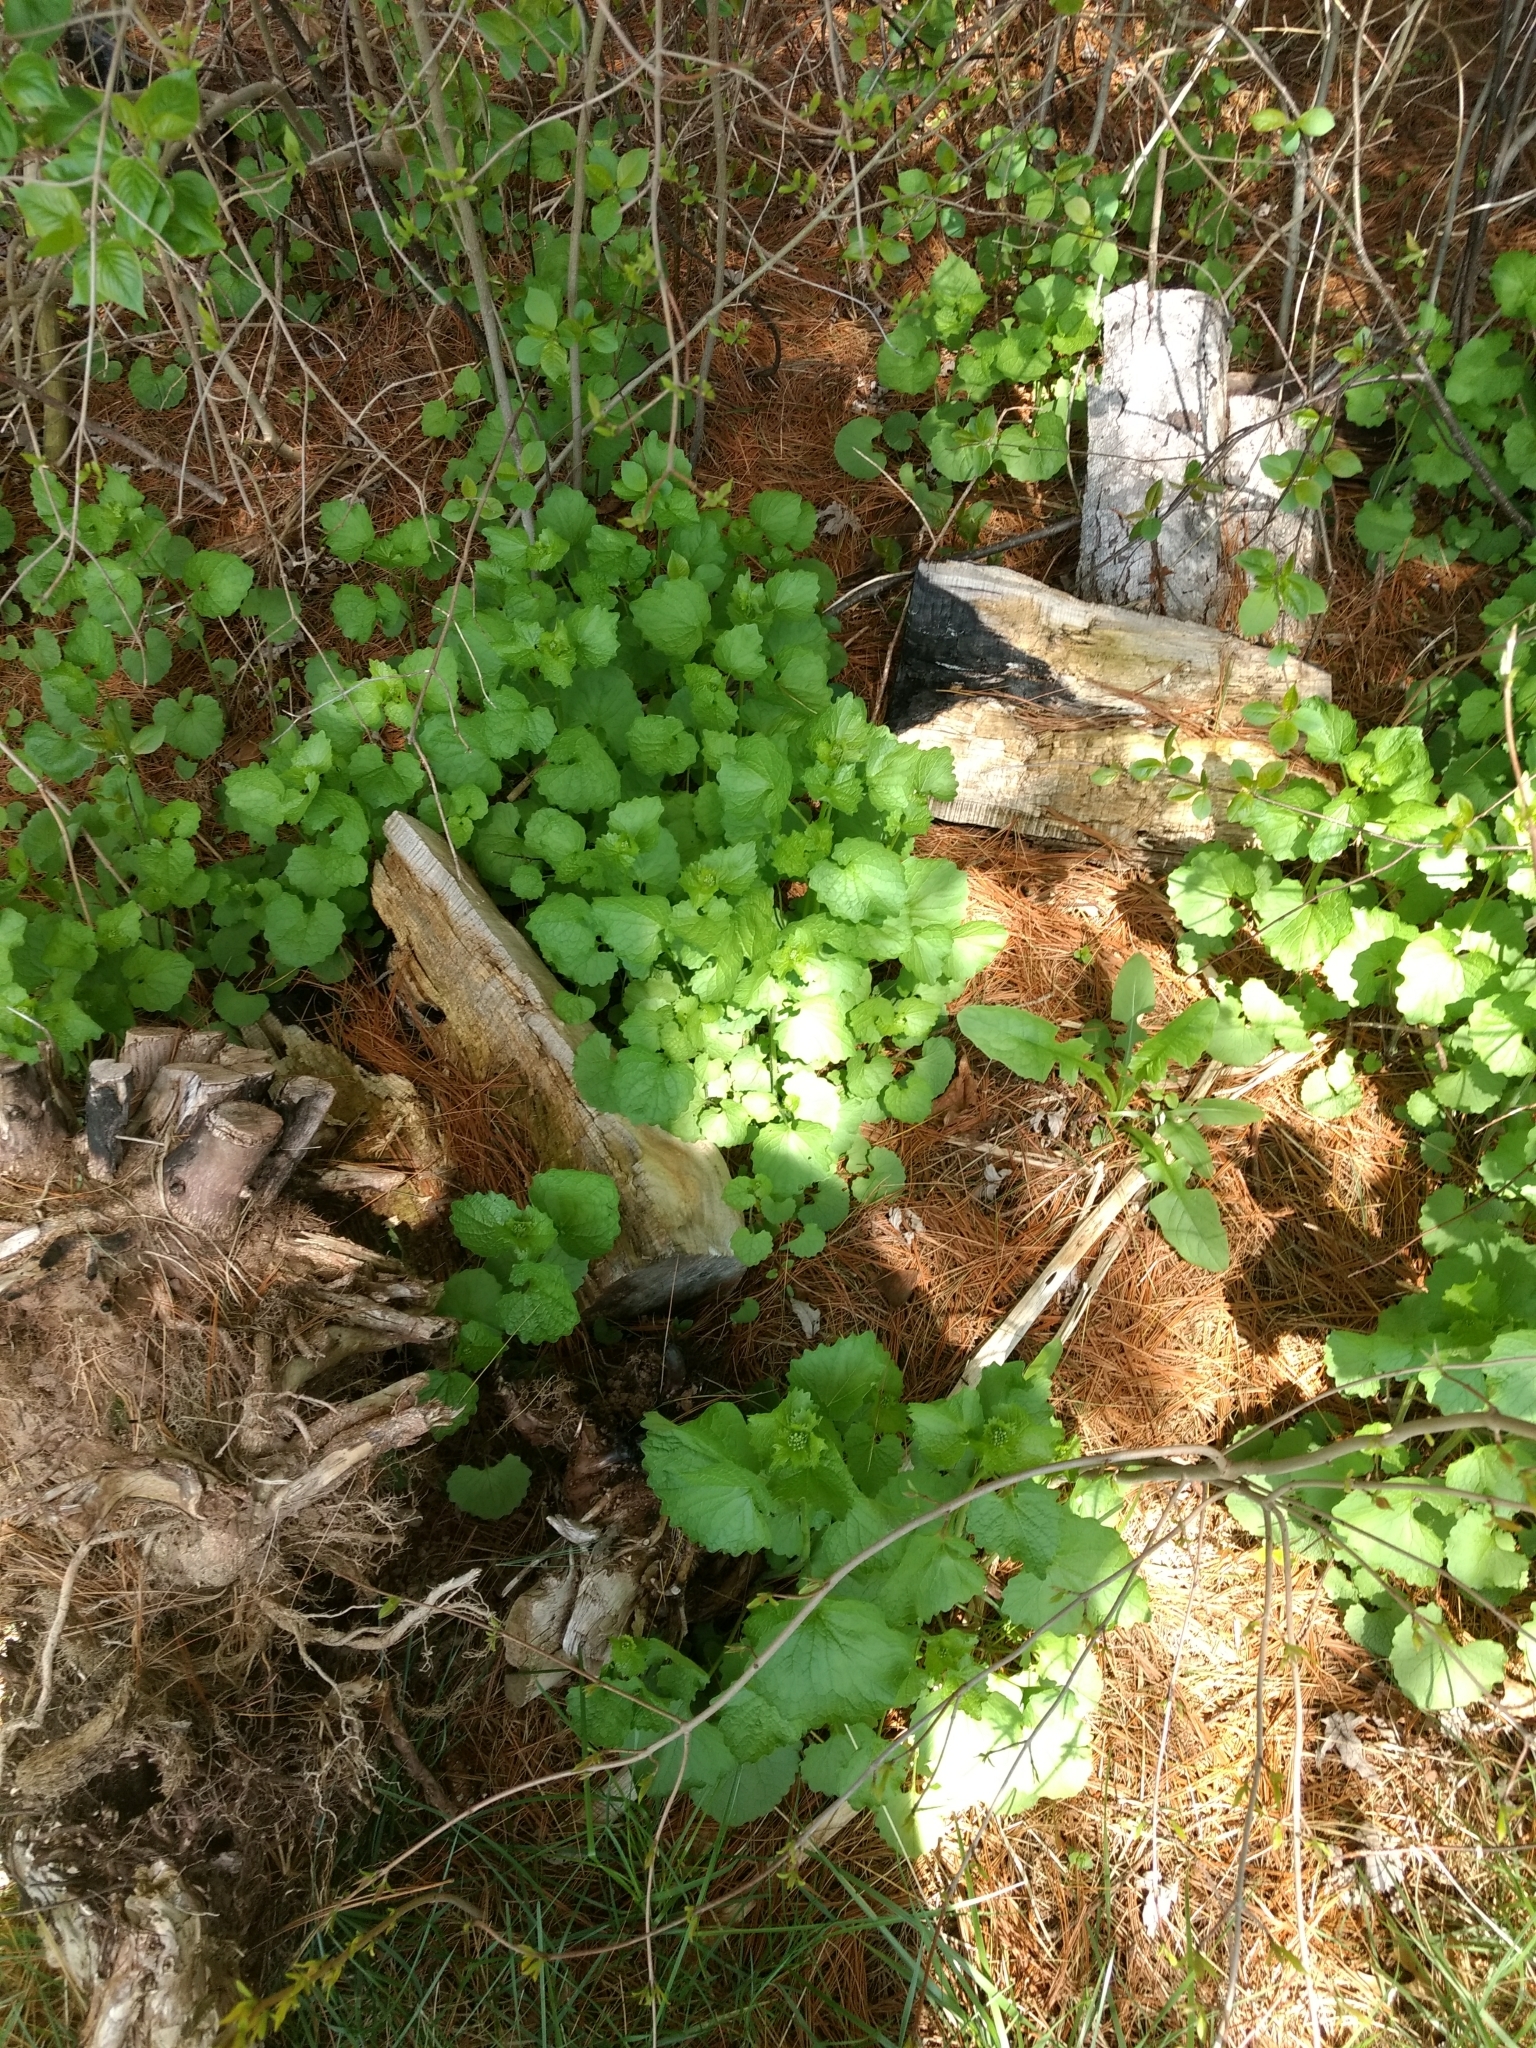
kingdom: Plantae
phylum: Tracheophyta
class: Magnoliopsida
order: Brassicales
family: Brassicaceae
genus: Alliaria
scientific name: Alliaria petiolata
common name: Garlic mustard
